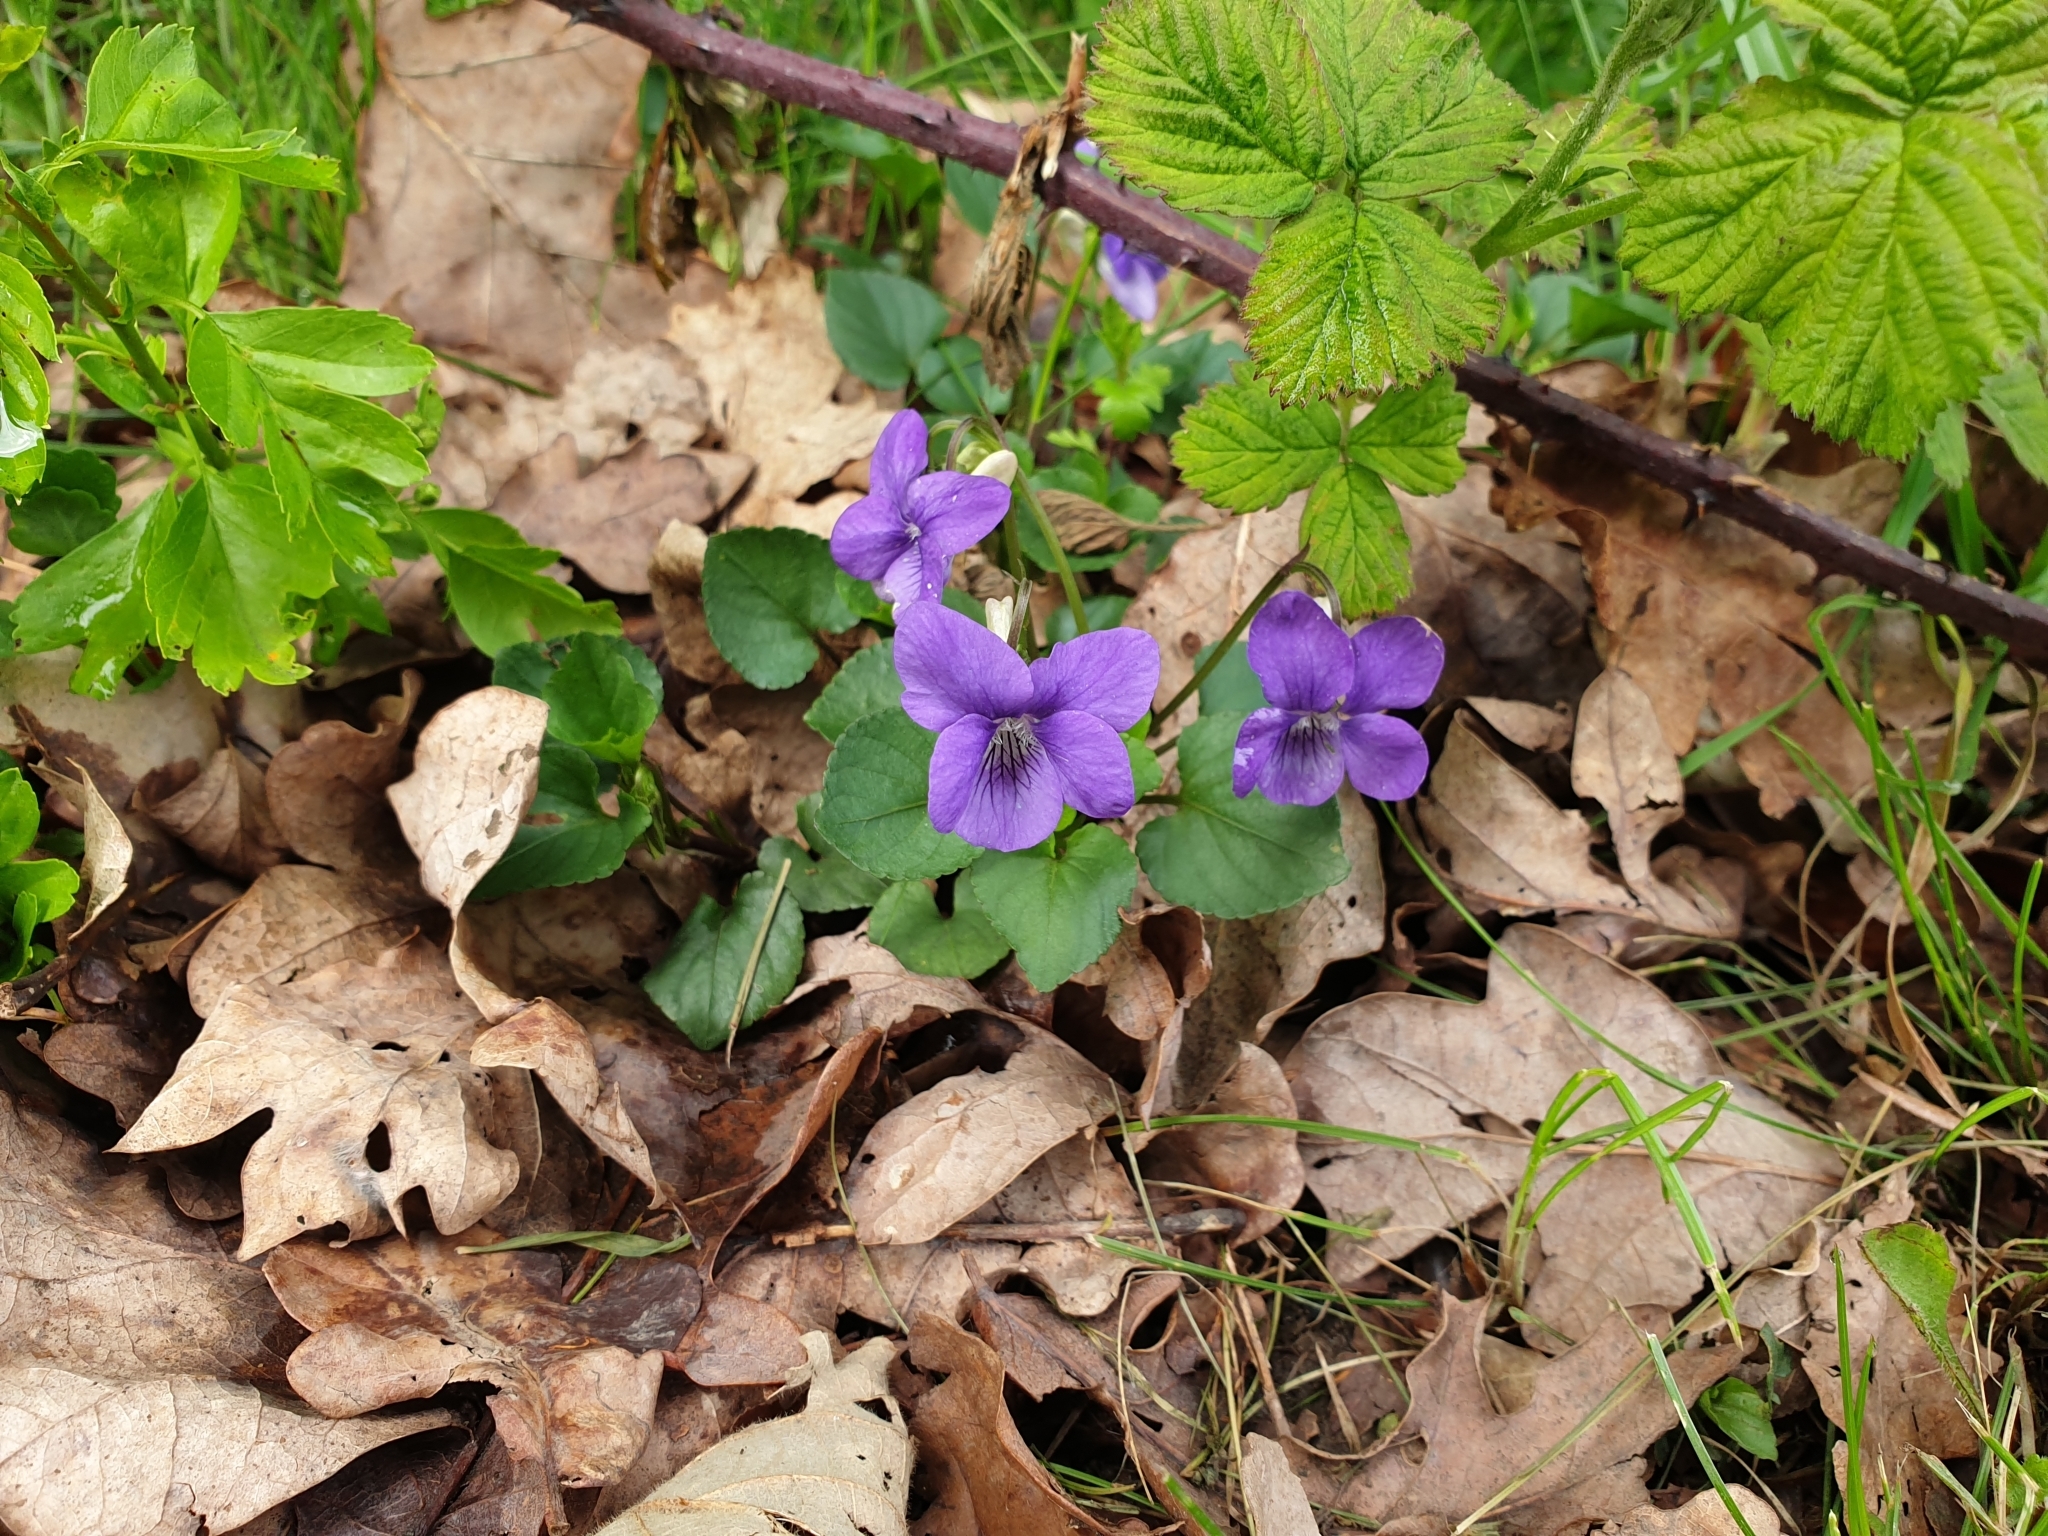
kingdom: Plantae
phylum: Tracheophyta
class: Magnoliopsida
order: Malpighiales
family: Violaceae
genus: Viola
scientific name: Viola riviniana
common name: Common dog-violet
